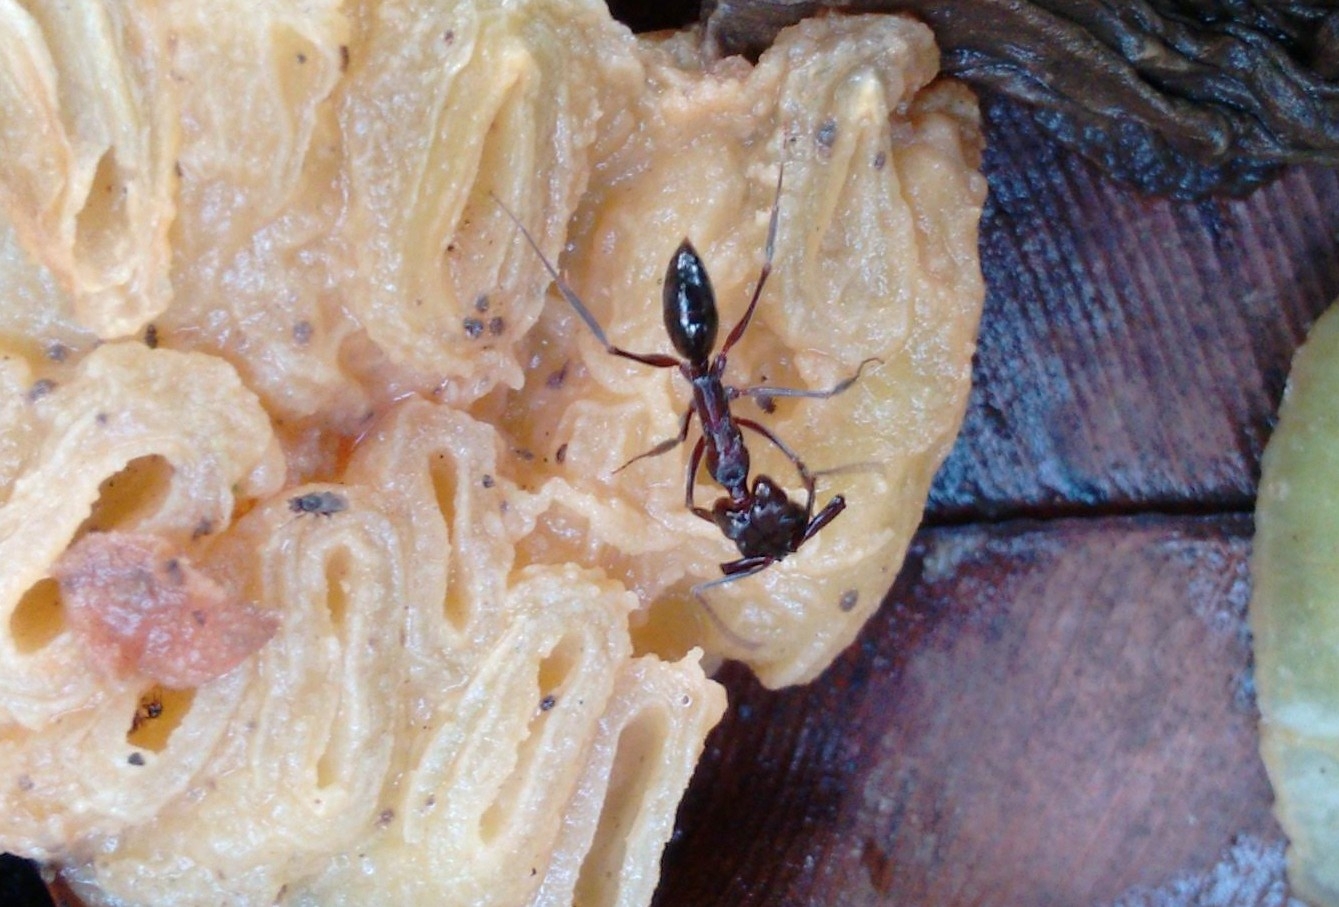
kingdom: Animalia
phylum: Arthropoda
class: Insecta
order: Hymenoptera
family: Formicidae
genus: Odontomachus
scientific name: Odontomachus simillimus
